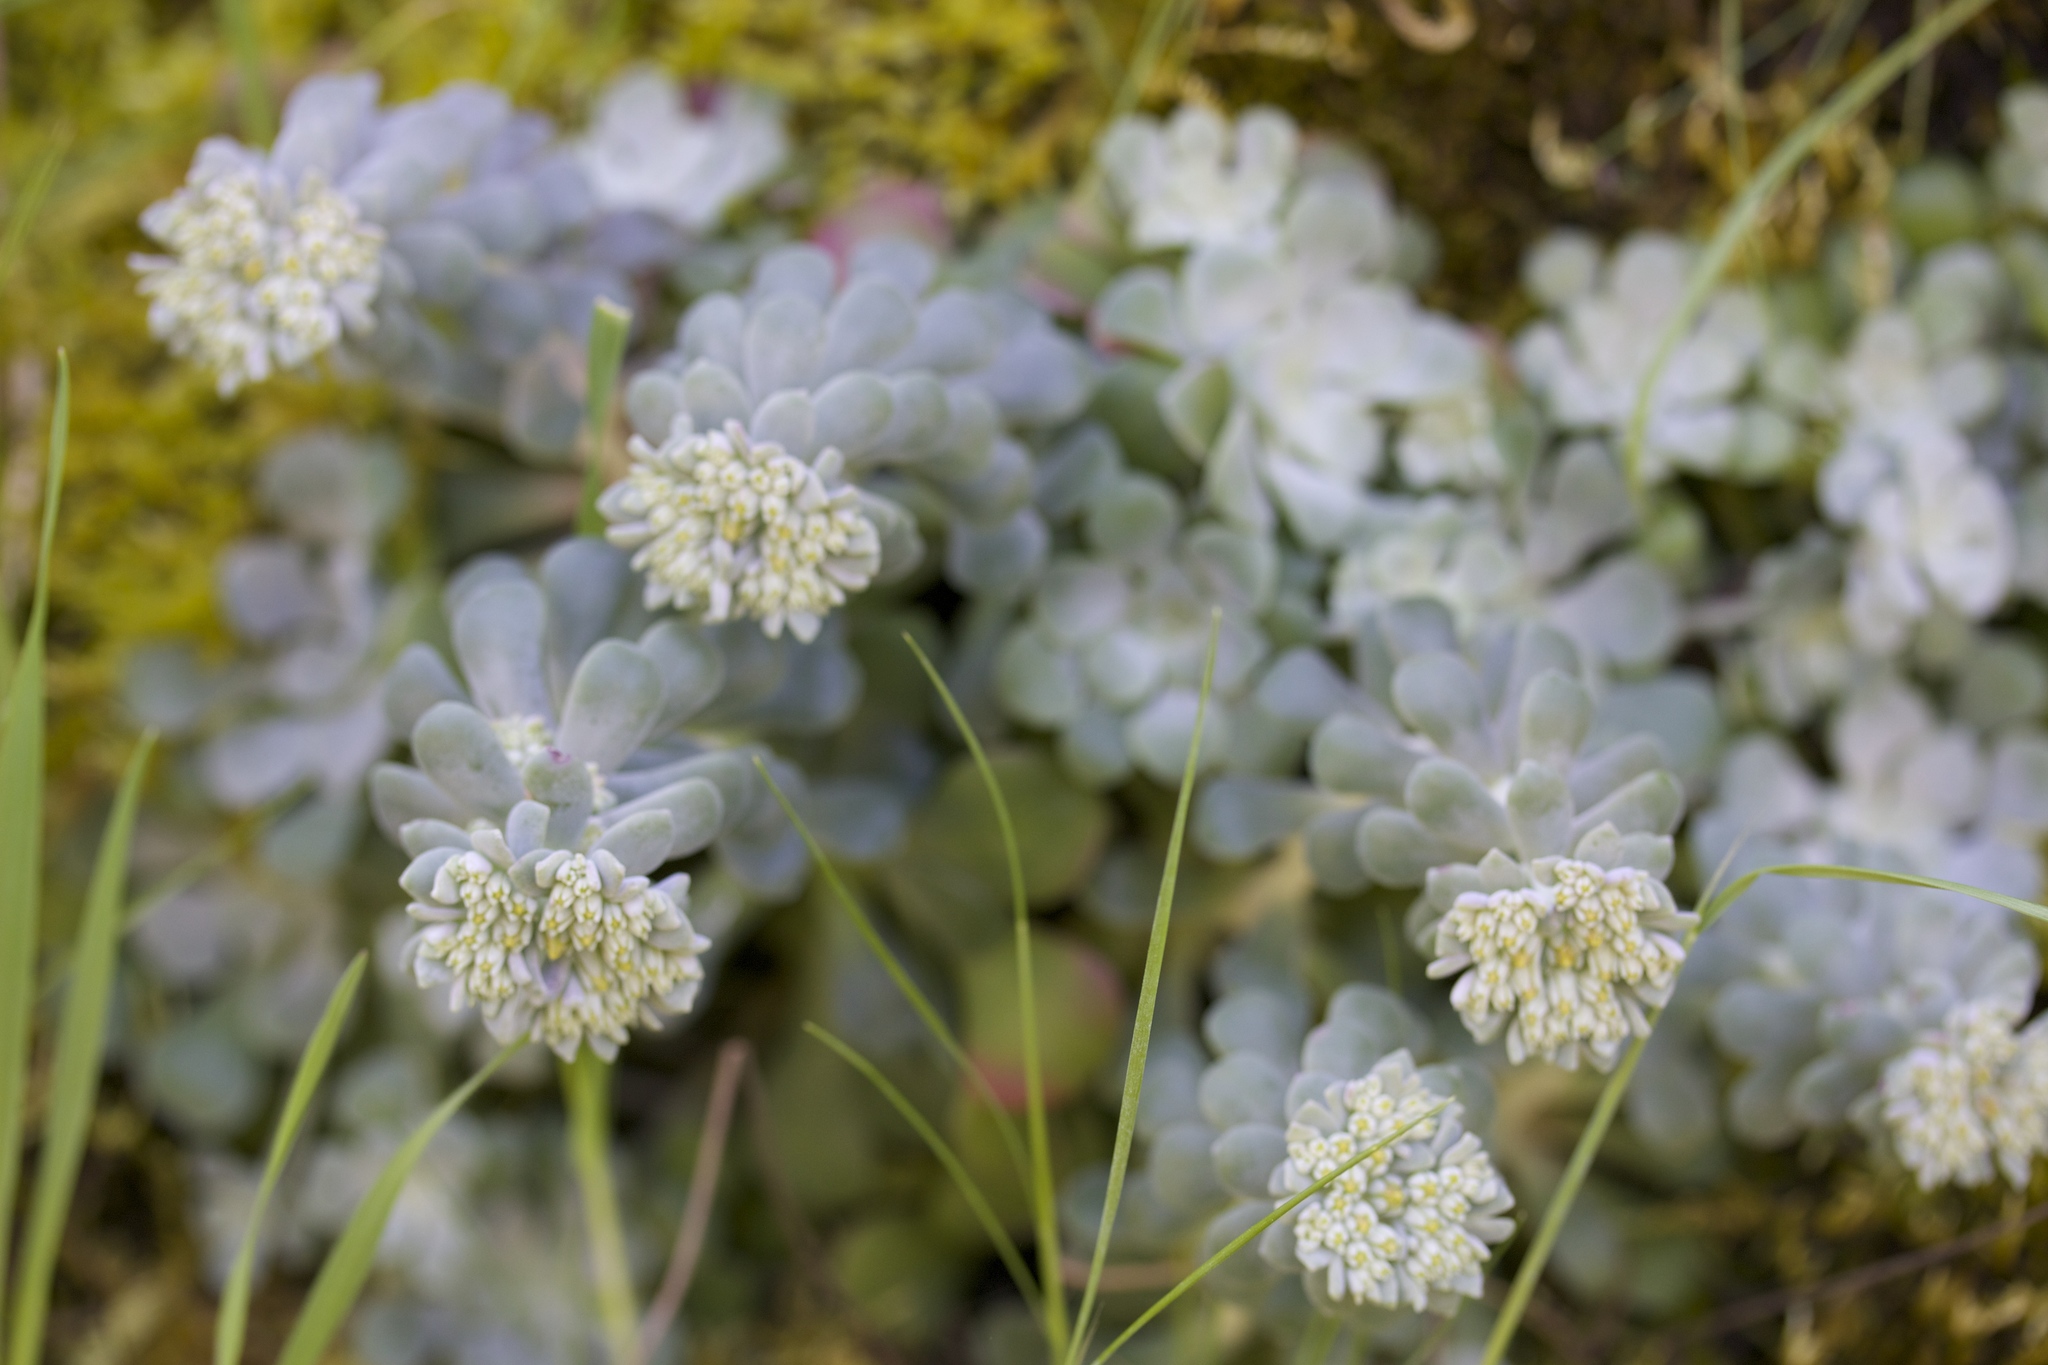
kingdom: Plantae
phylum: Tracheophyta
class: Magnoliopsida
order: Saxifragales
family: Crassulaceae
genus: Sedum
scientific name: Sedum spathulifolium
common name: Colorado stonecrop
